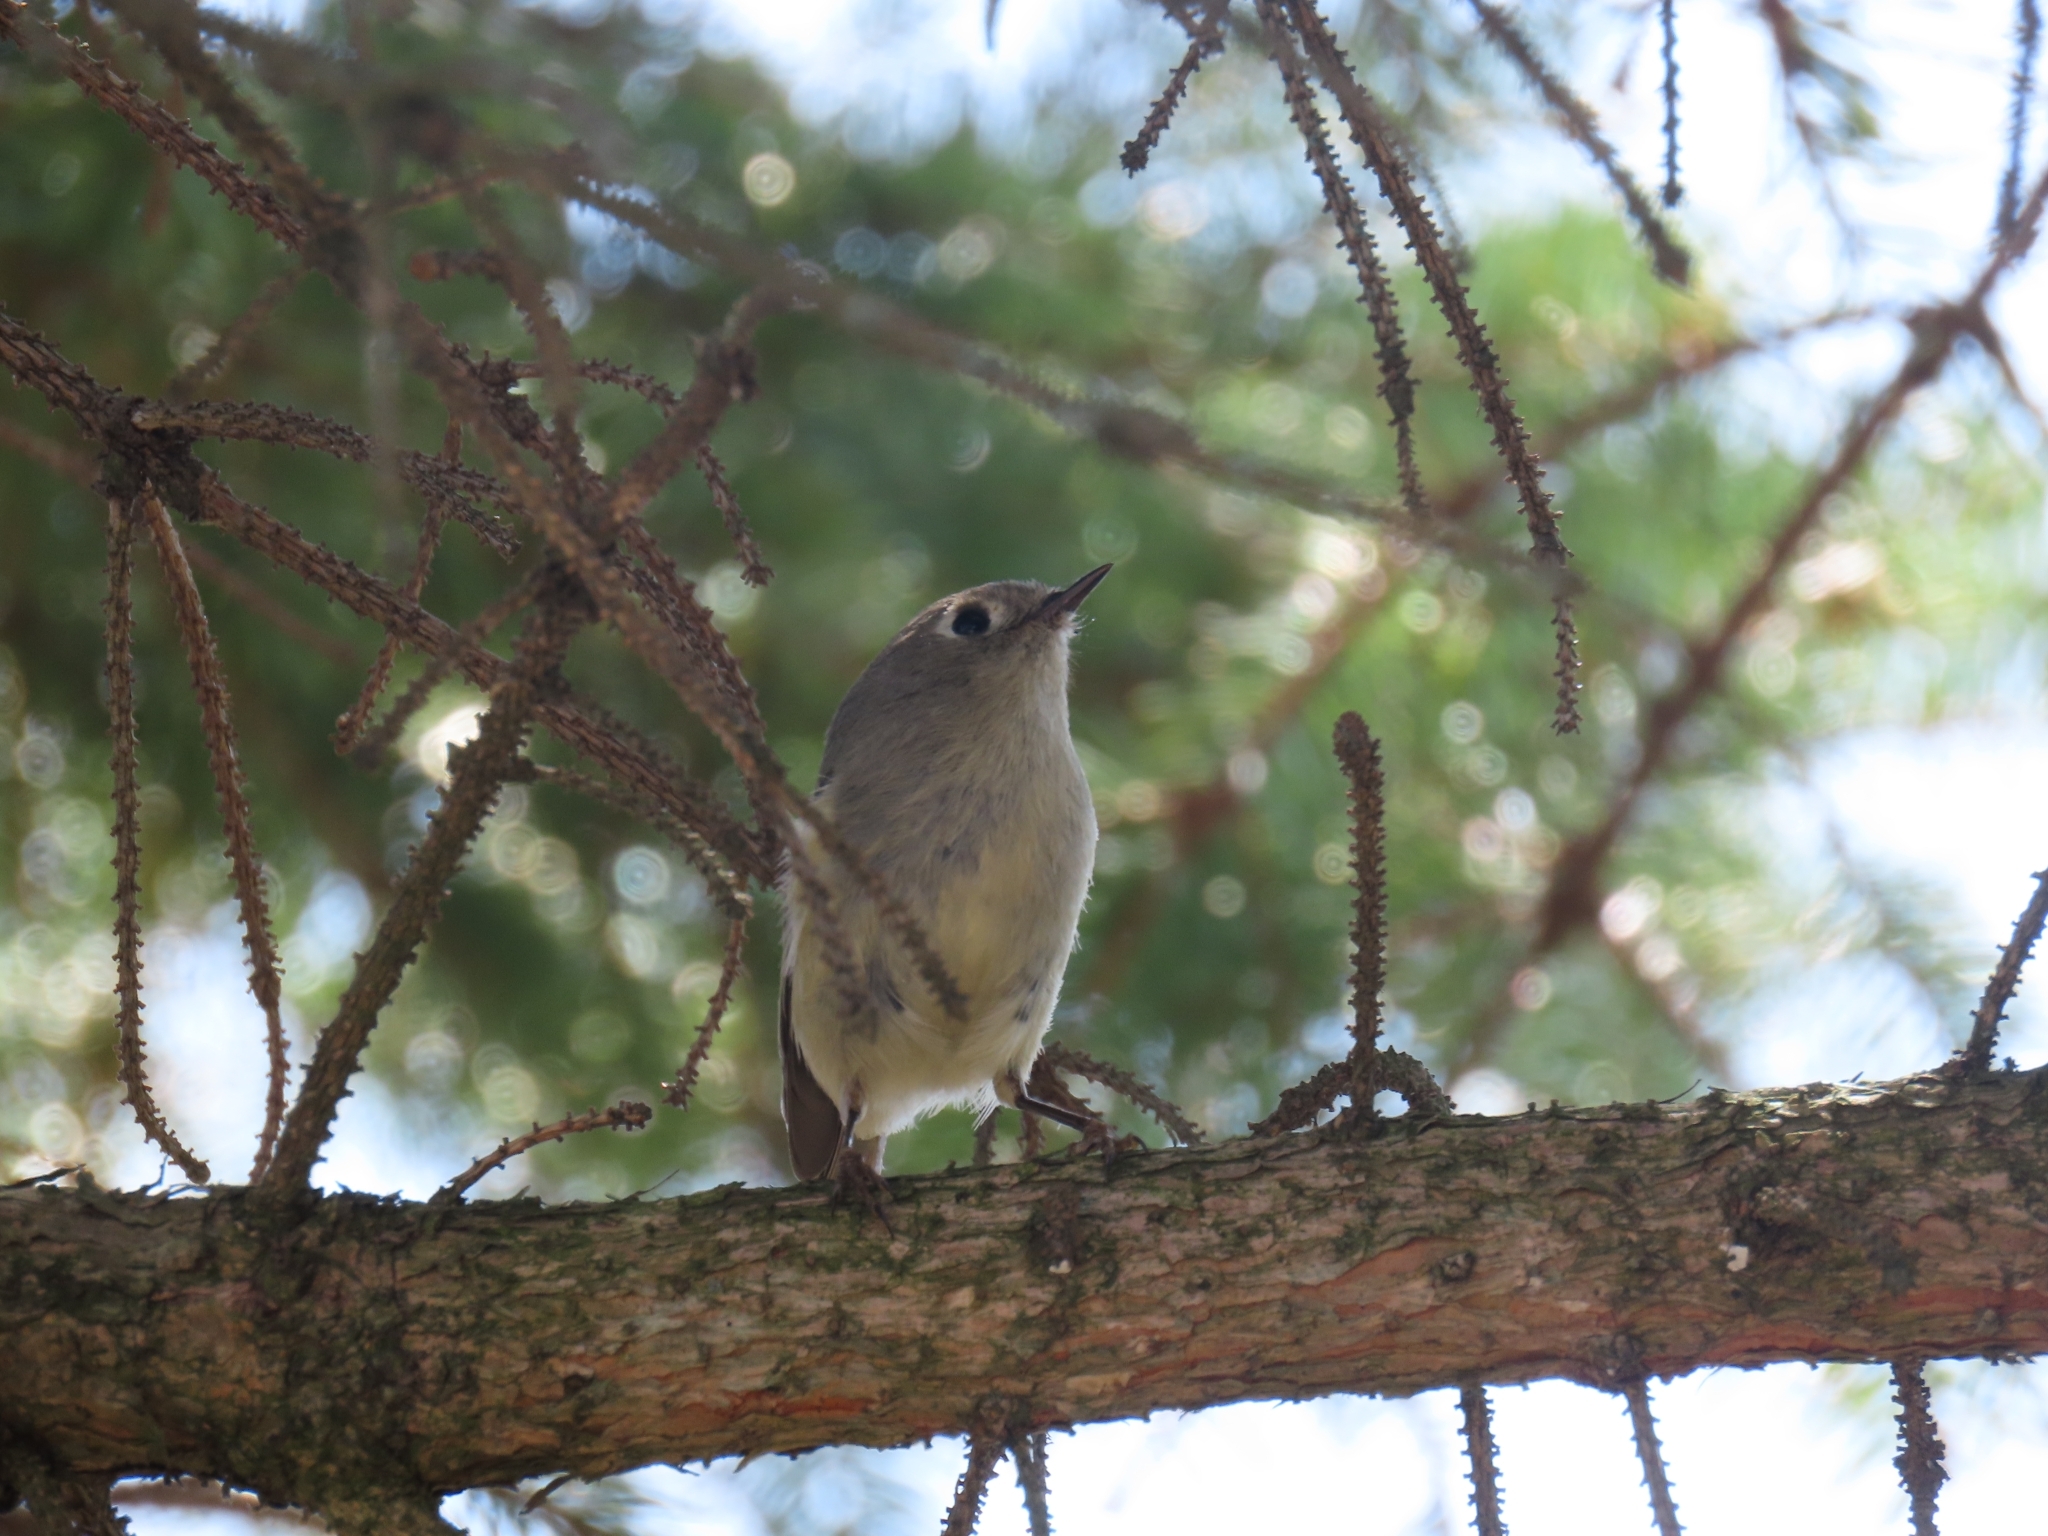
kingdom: Animalia
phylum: Chordata
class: Aves
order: Passeriformes
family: Regulidae
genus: Regulus
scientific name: Regulus calendula
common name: Ruby-crowned kinglet
